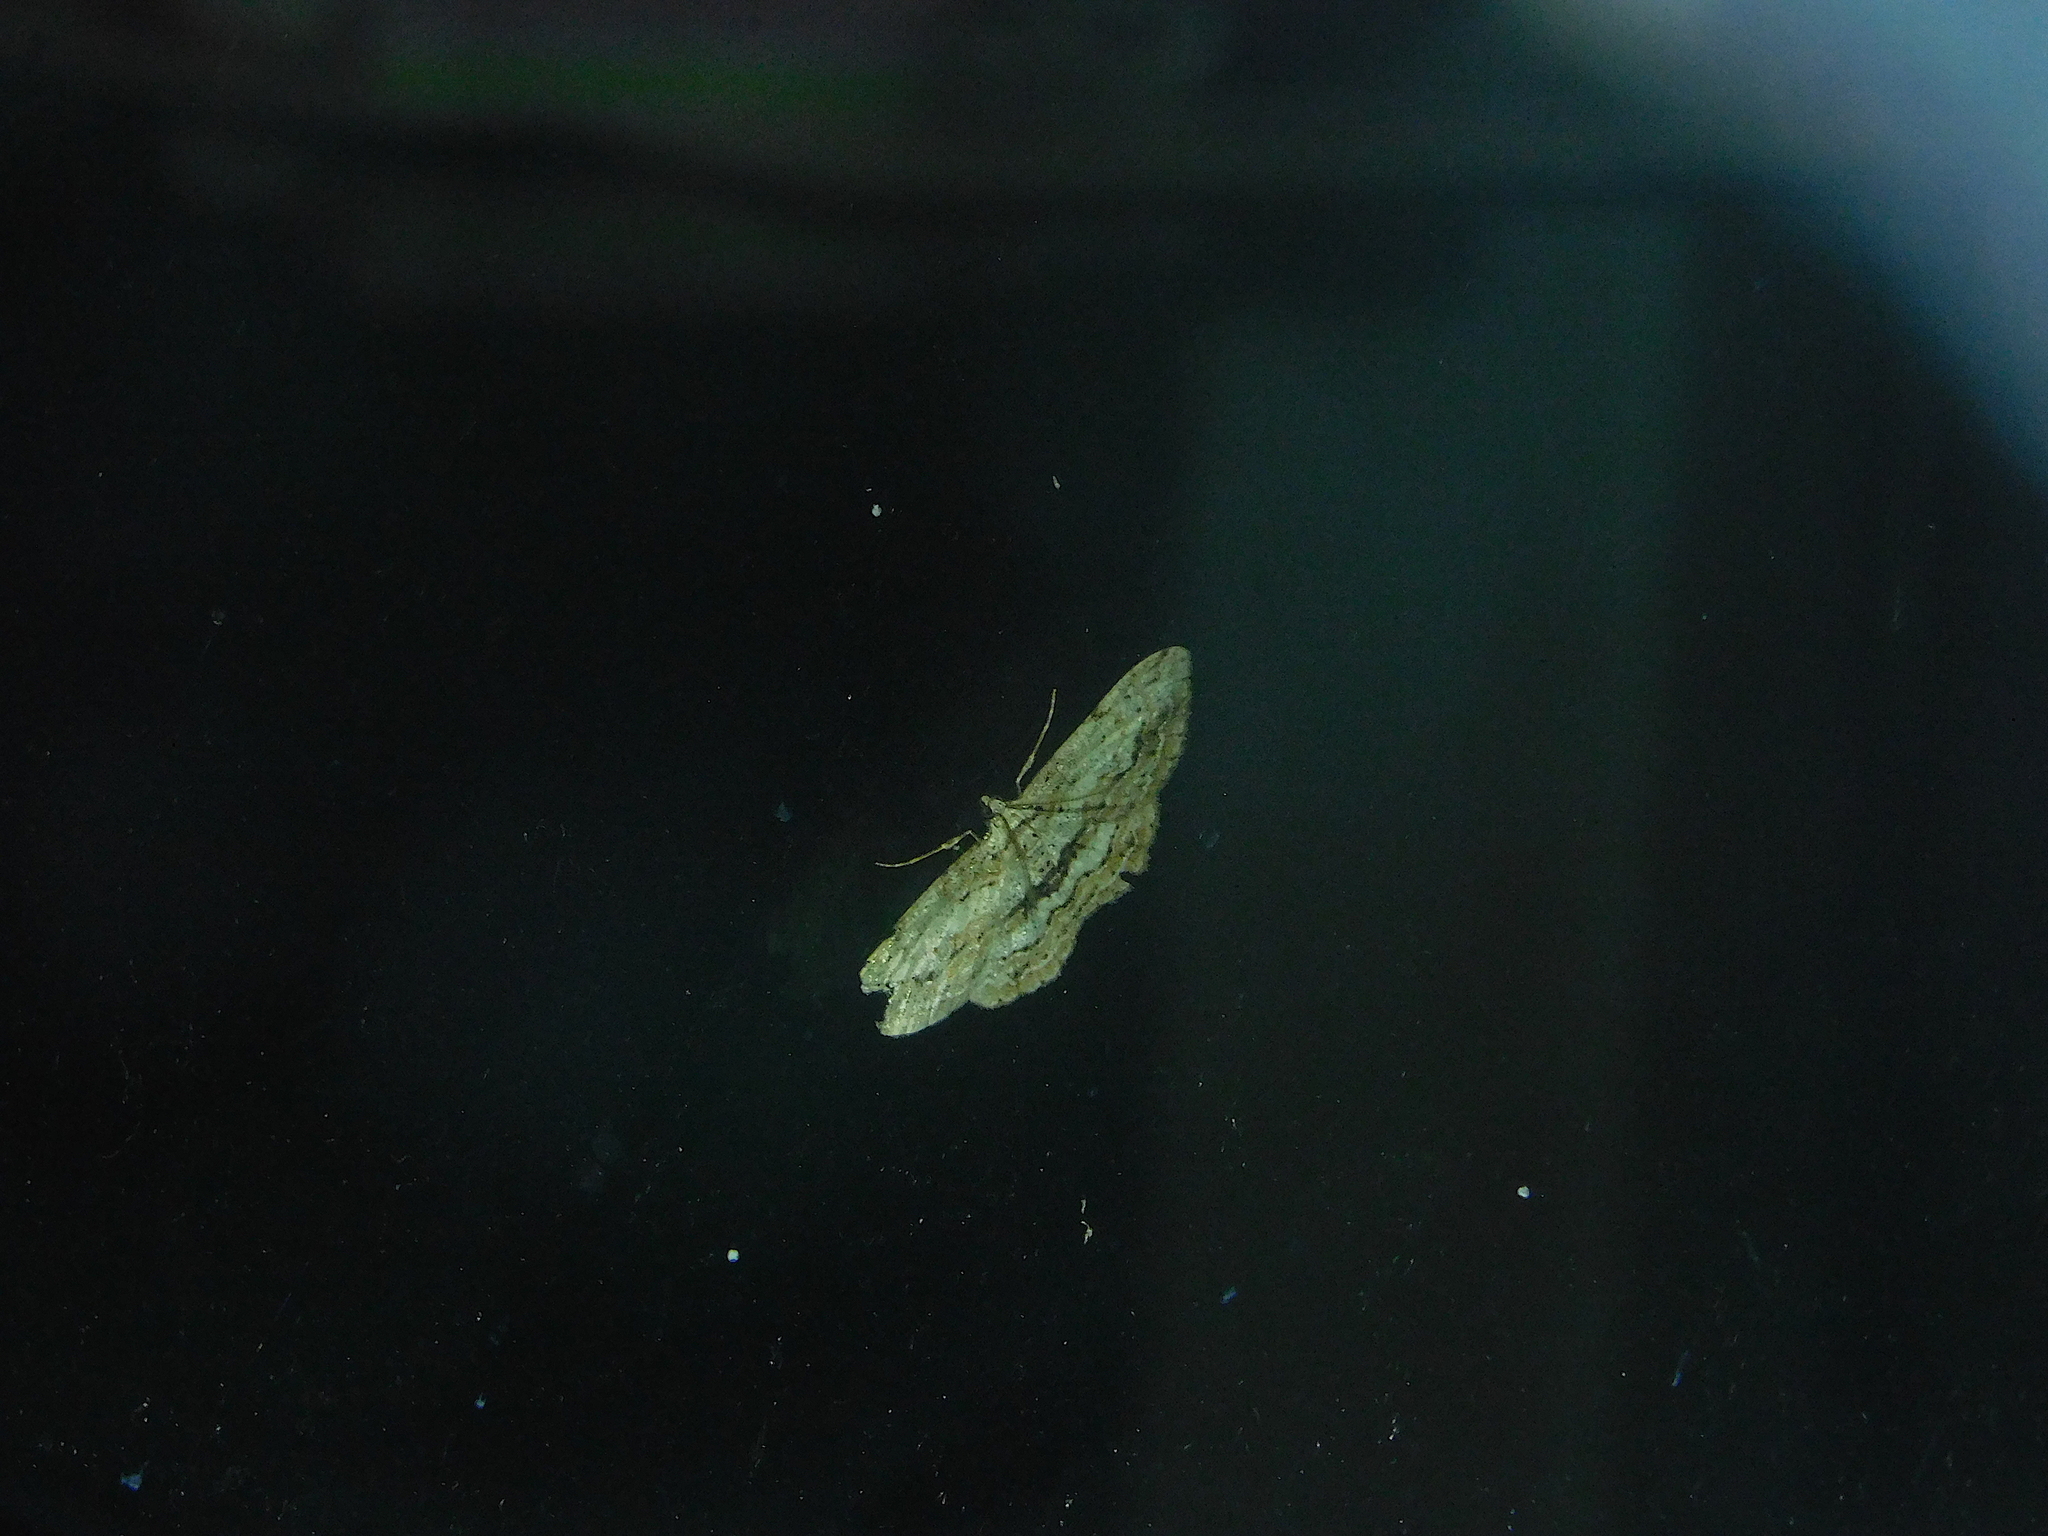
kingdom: Animalia
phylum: Arthropoda
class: Insecta
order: Lepidoptera
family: Geometridae
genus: Didymoctenia
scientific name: Didymoctenia exsuperata
